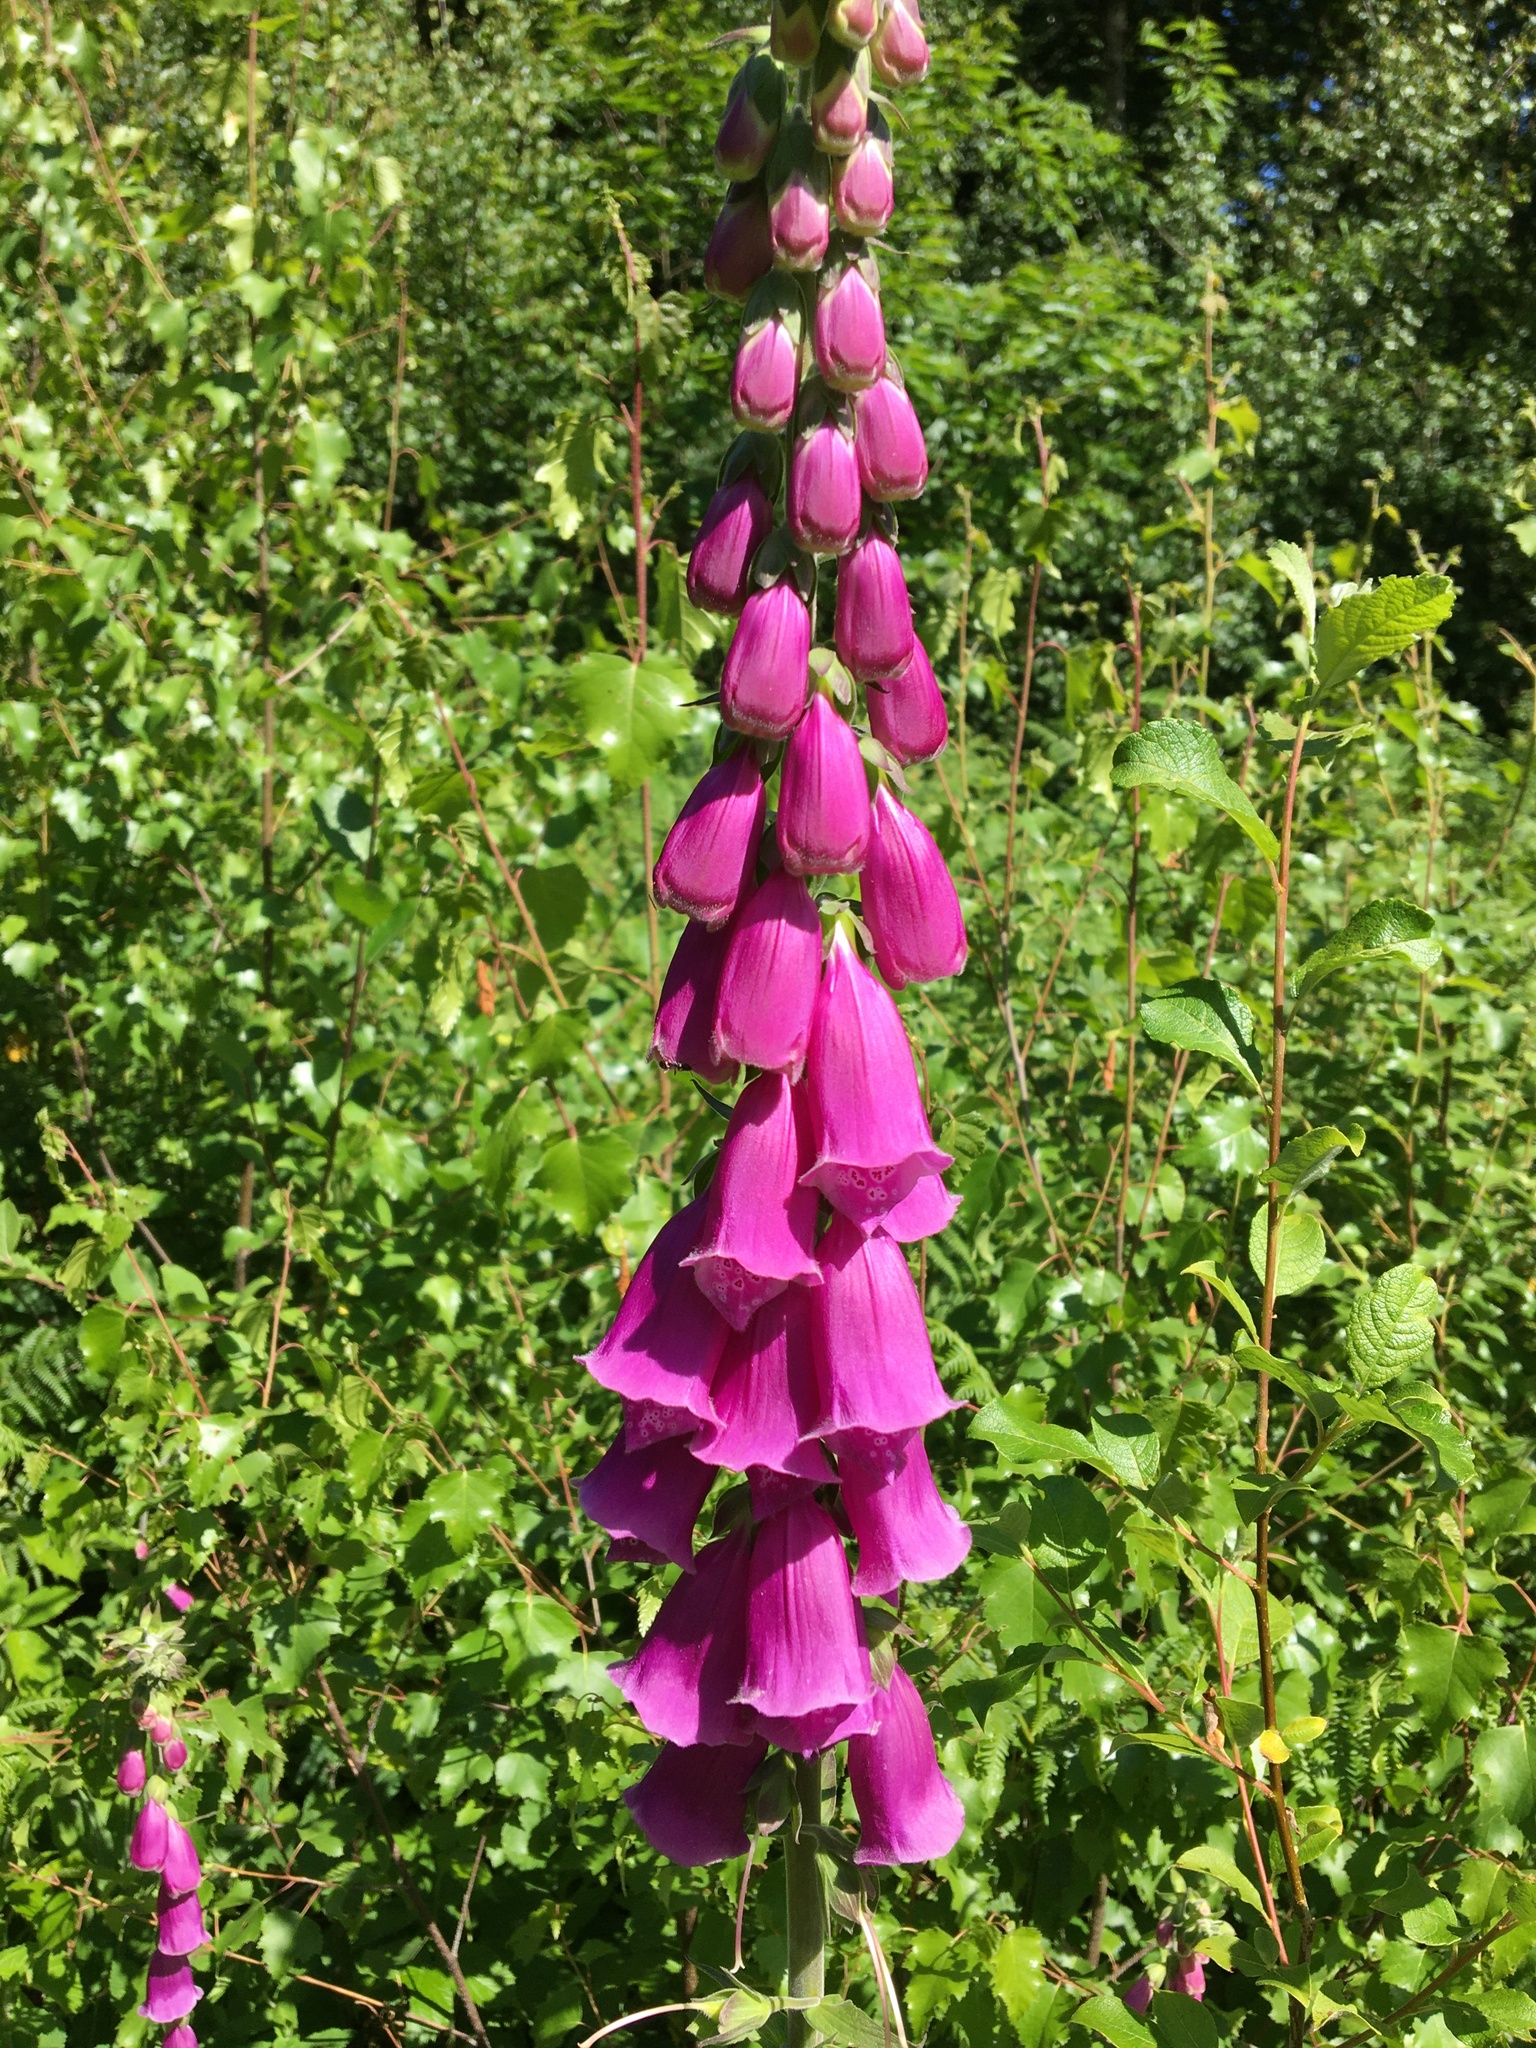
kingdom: Plantae
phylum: Tracheophyta
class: Magnoliopsida
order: Lamiales
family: Plantaginaceae
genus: Digitalis
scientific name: Digitalis purpurea
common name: Foxglove
